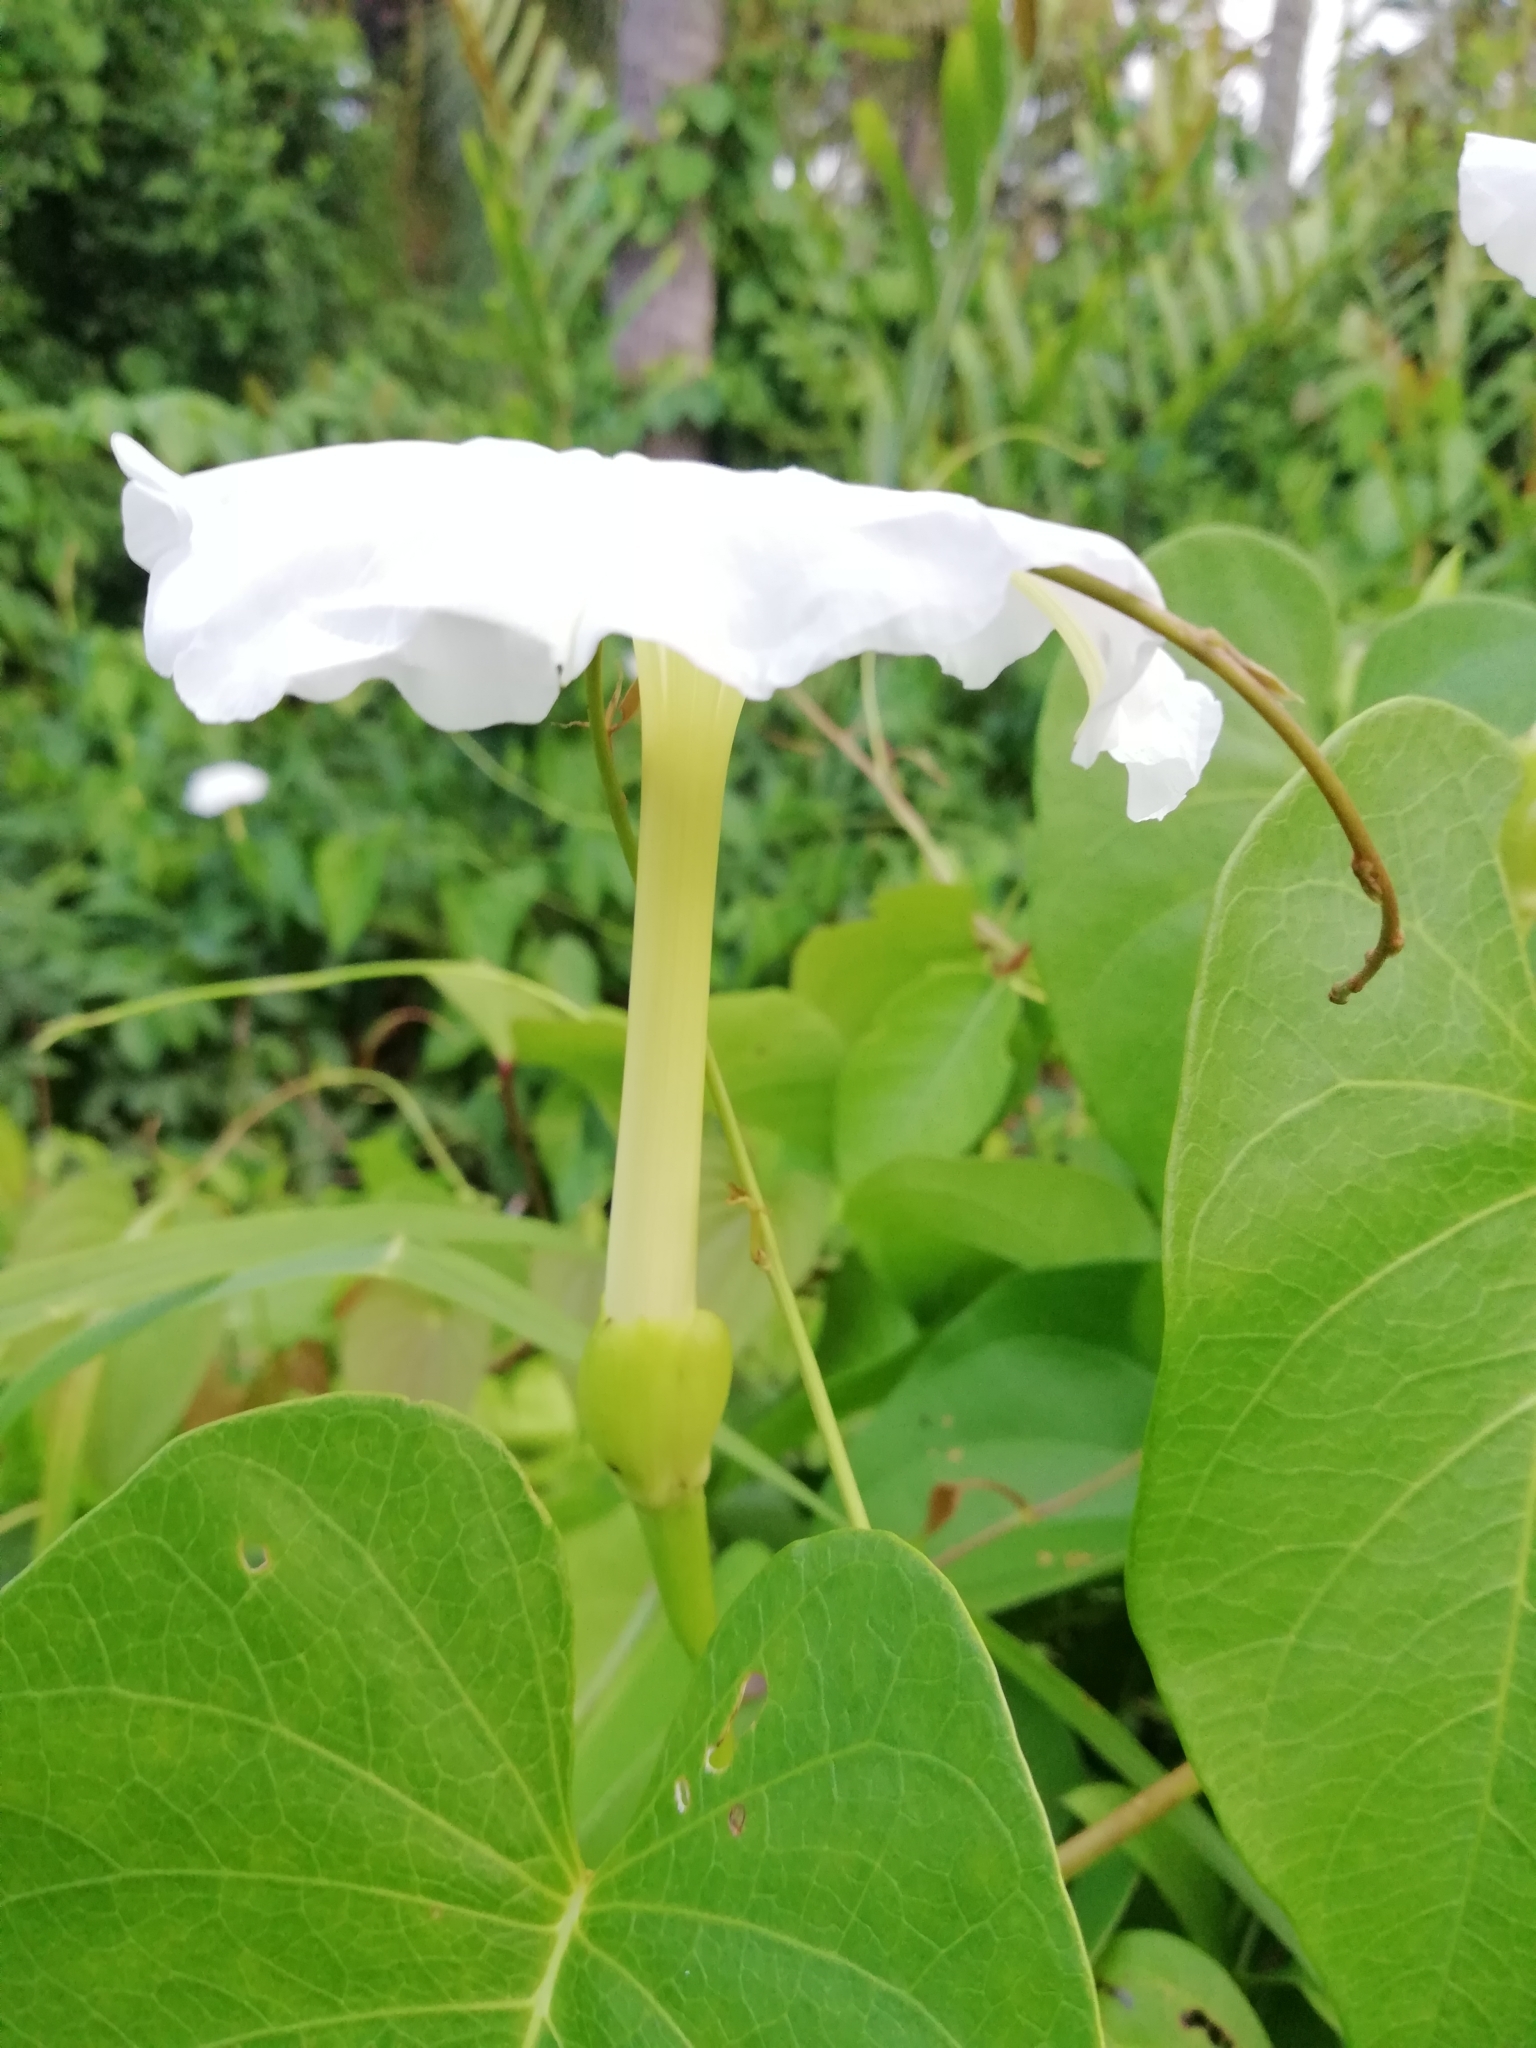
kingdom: Plantae
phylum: Tracheophyta
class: Magnoliopsida
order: Solanales
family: Convolvulaceae
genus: Ipomoea
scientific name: Ipomoea violacea
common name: Beach moonflower
